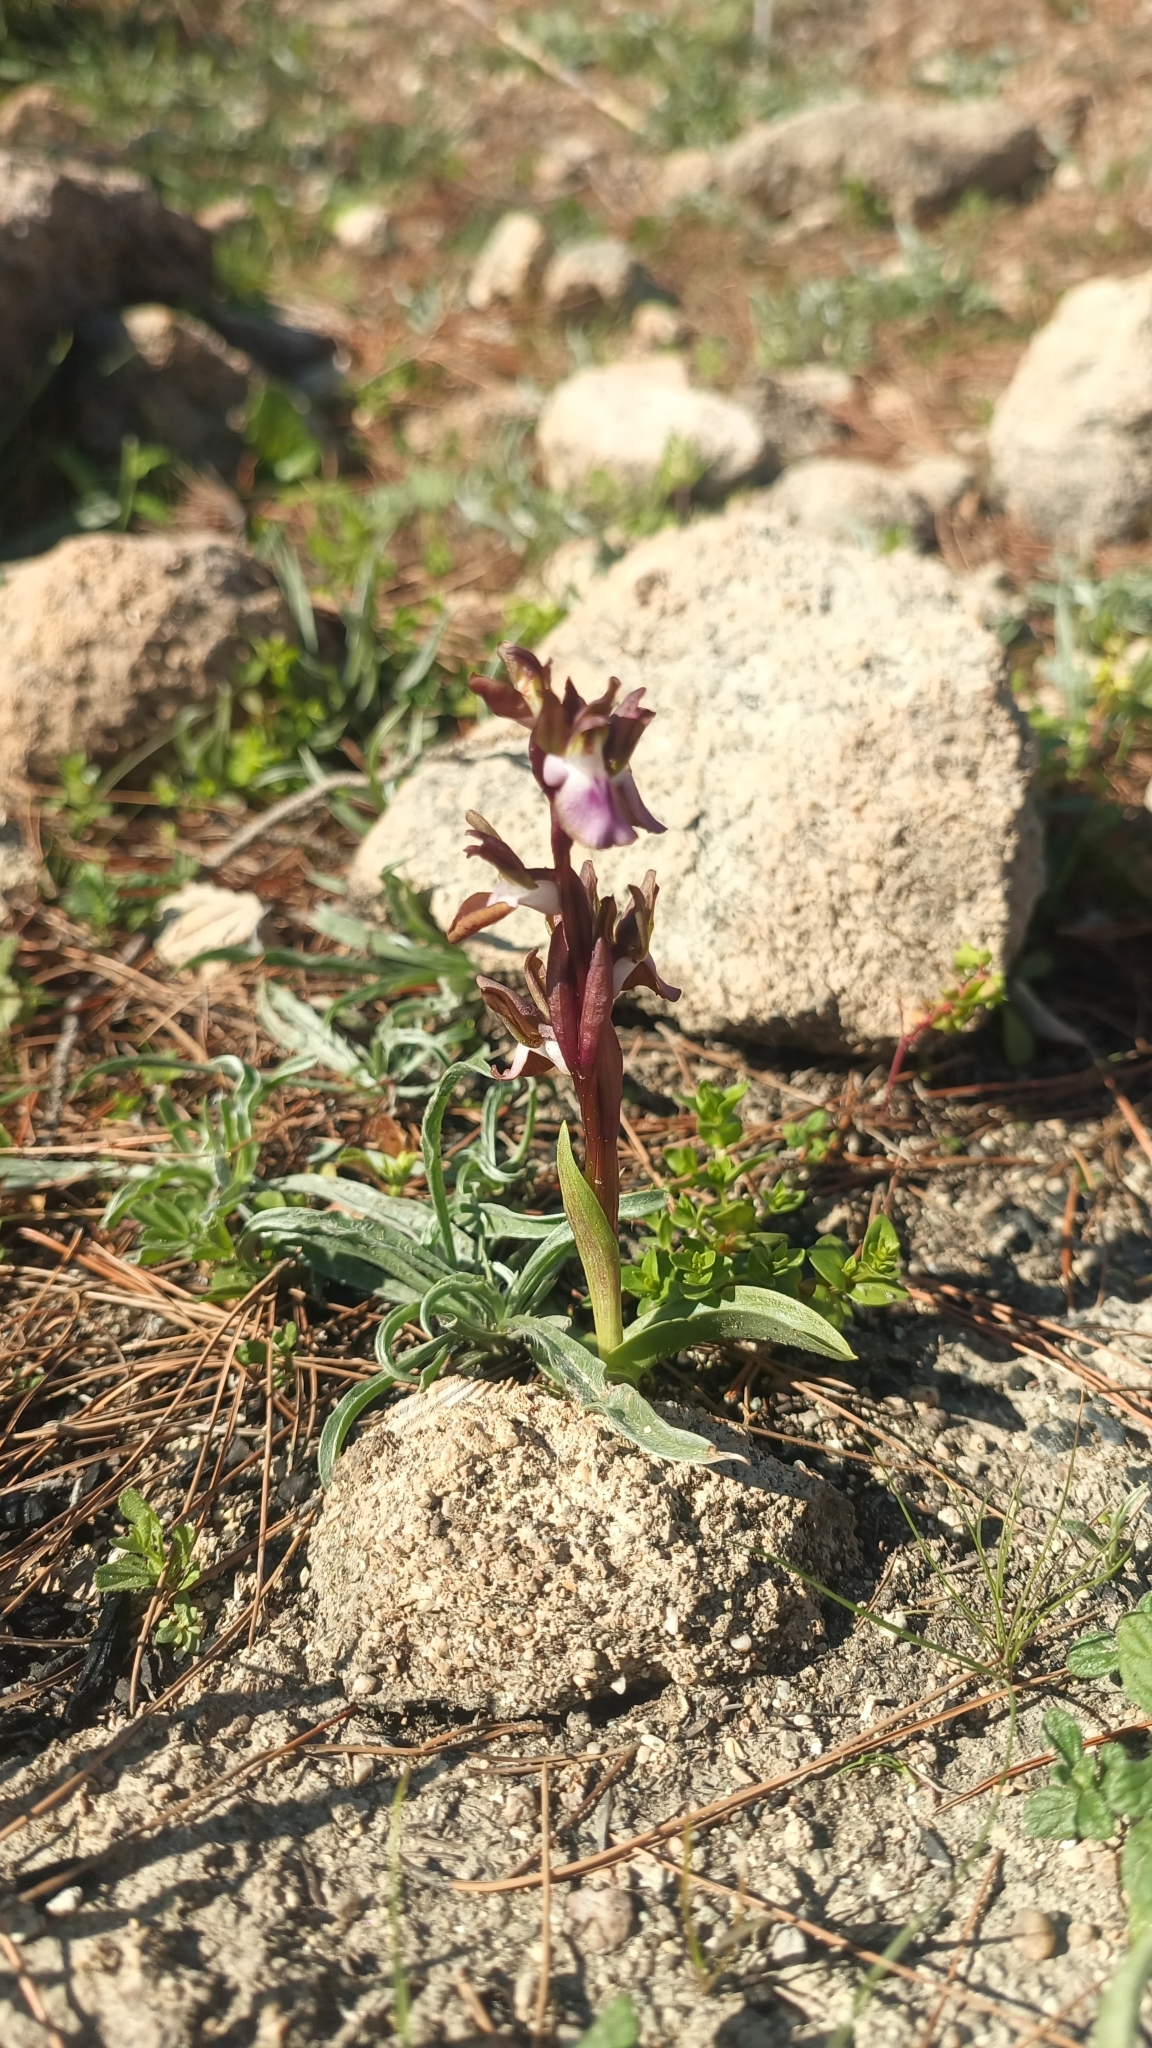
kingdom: Plantae
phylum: Tracheophyta
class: Liliopsida
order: Asparagales
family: Orchidaceae
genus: Anacamptis
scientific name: Anacamptis collina
